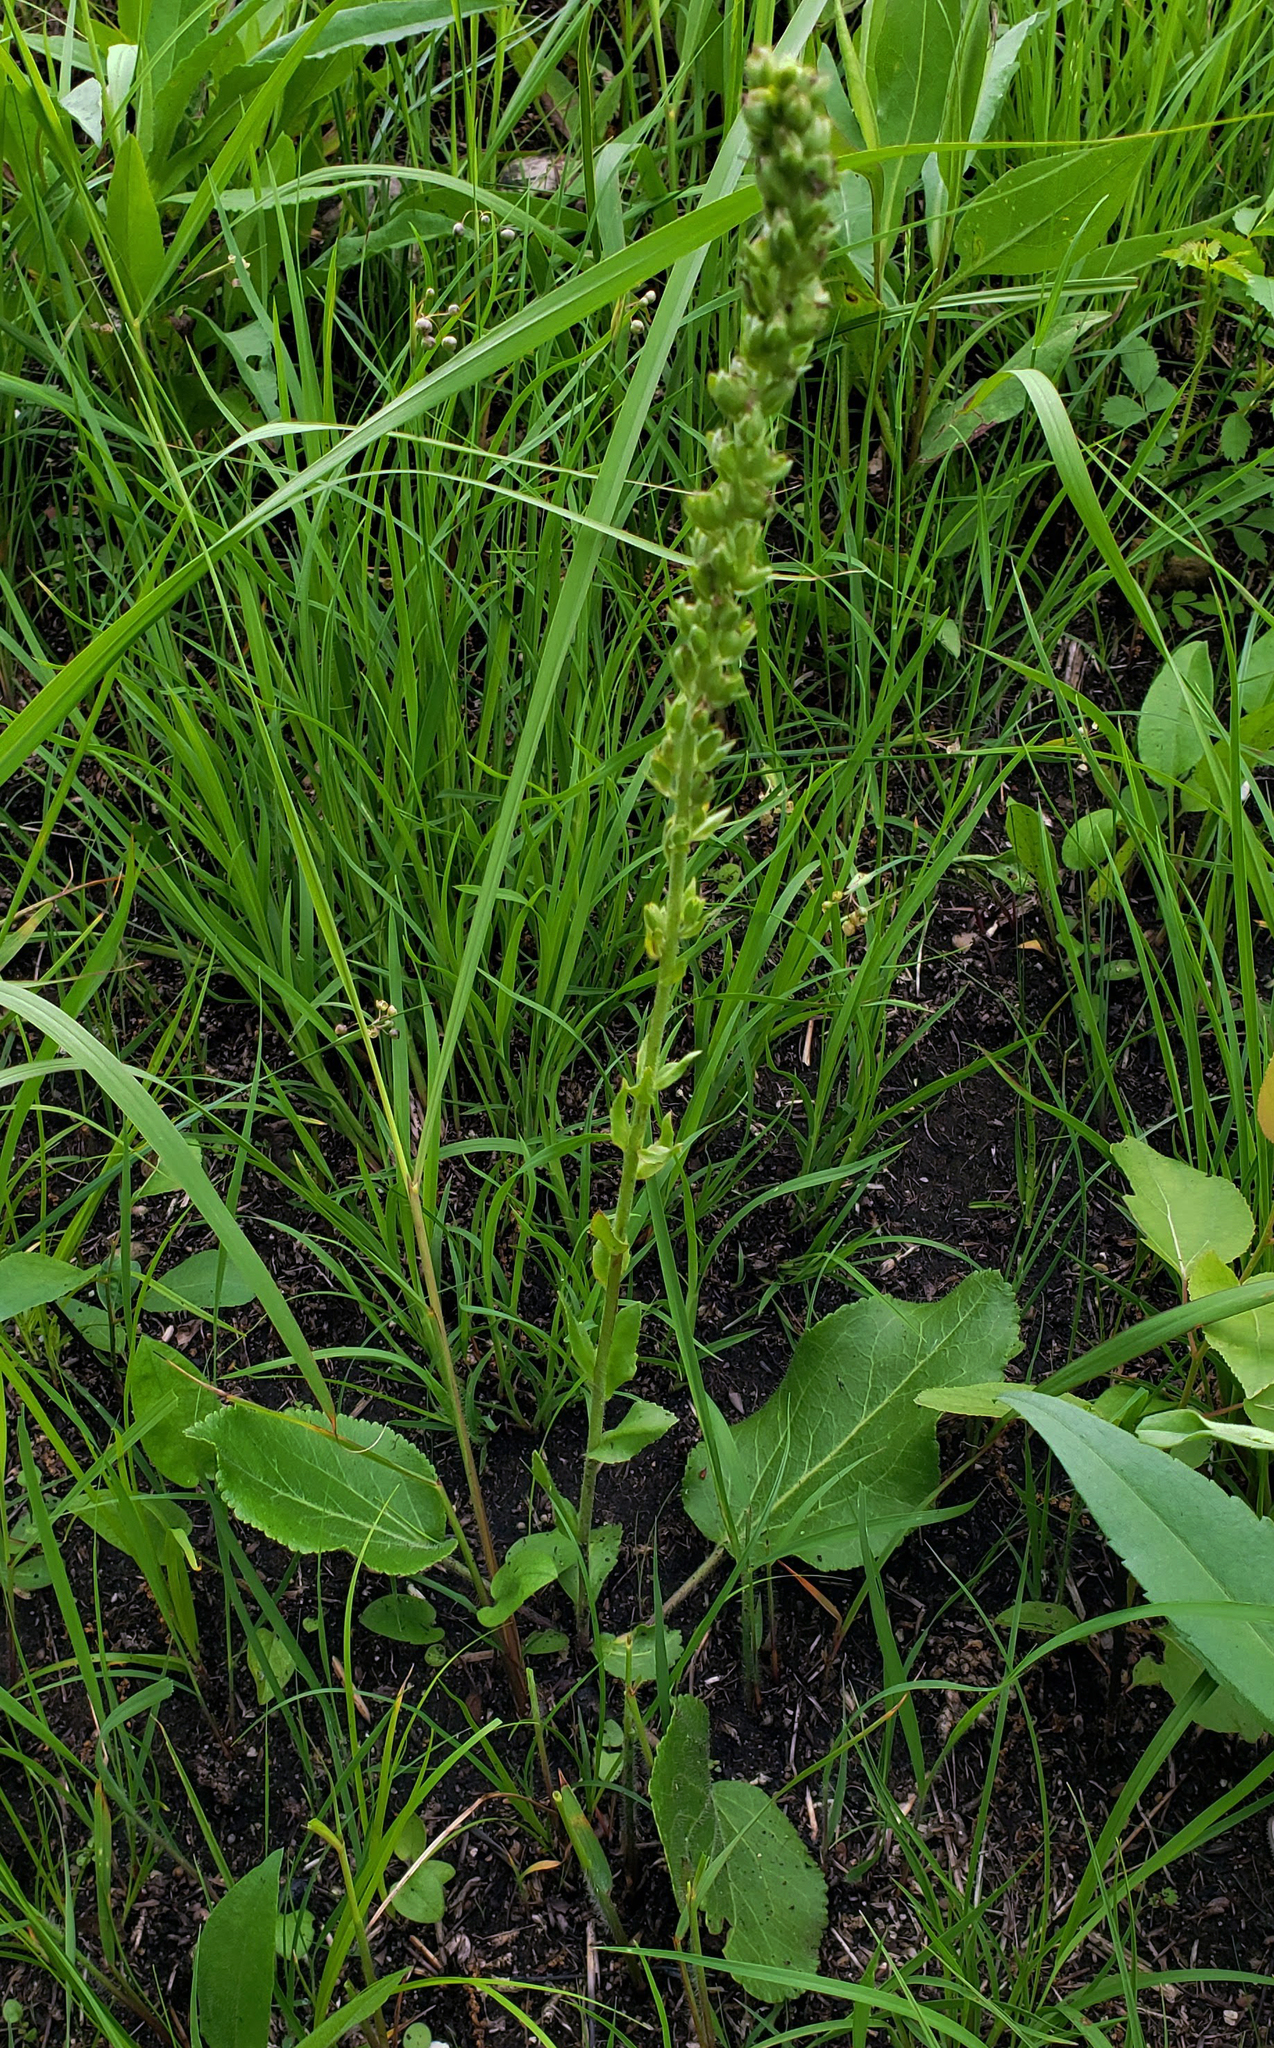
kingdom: Plantae
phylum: Tracheophyta
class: Magnoliopsida
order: Lamiales
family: Plantaginaceae
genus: Synthyris
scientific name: Synthyris bullii
